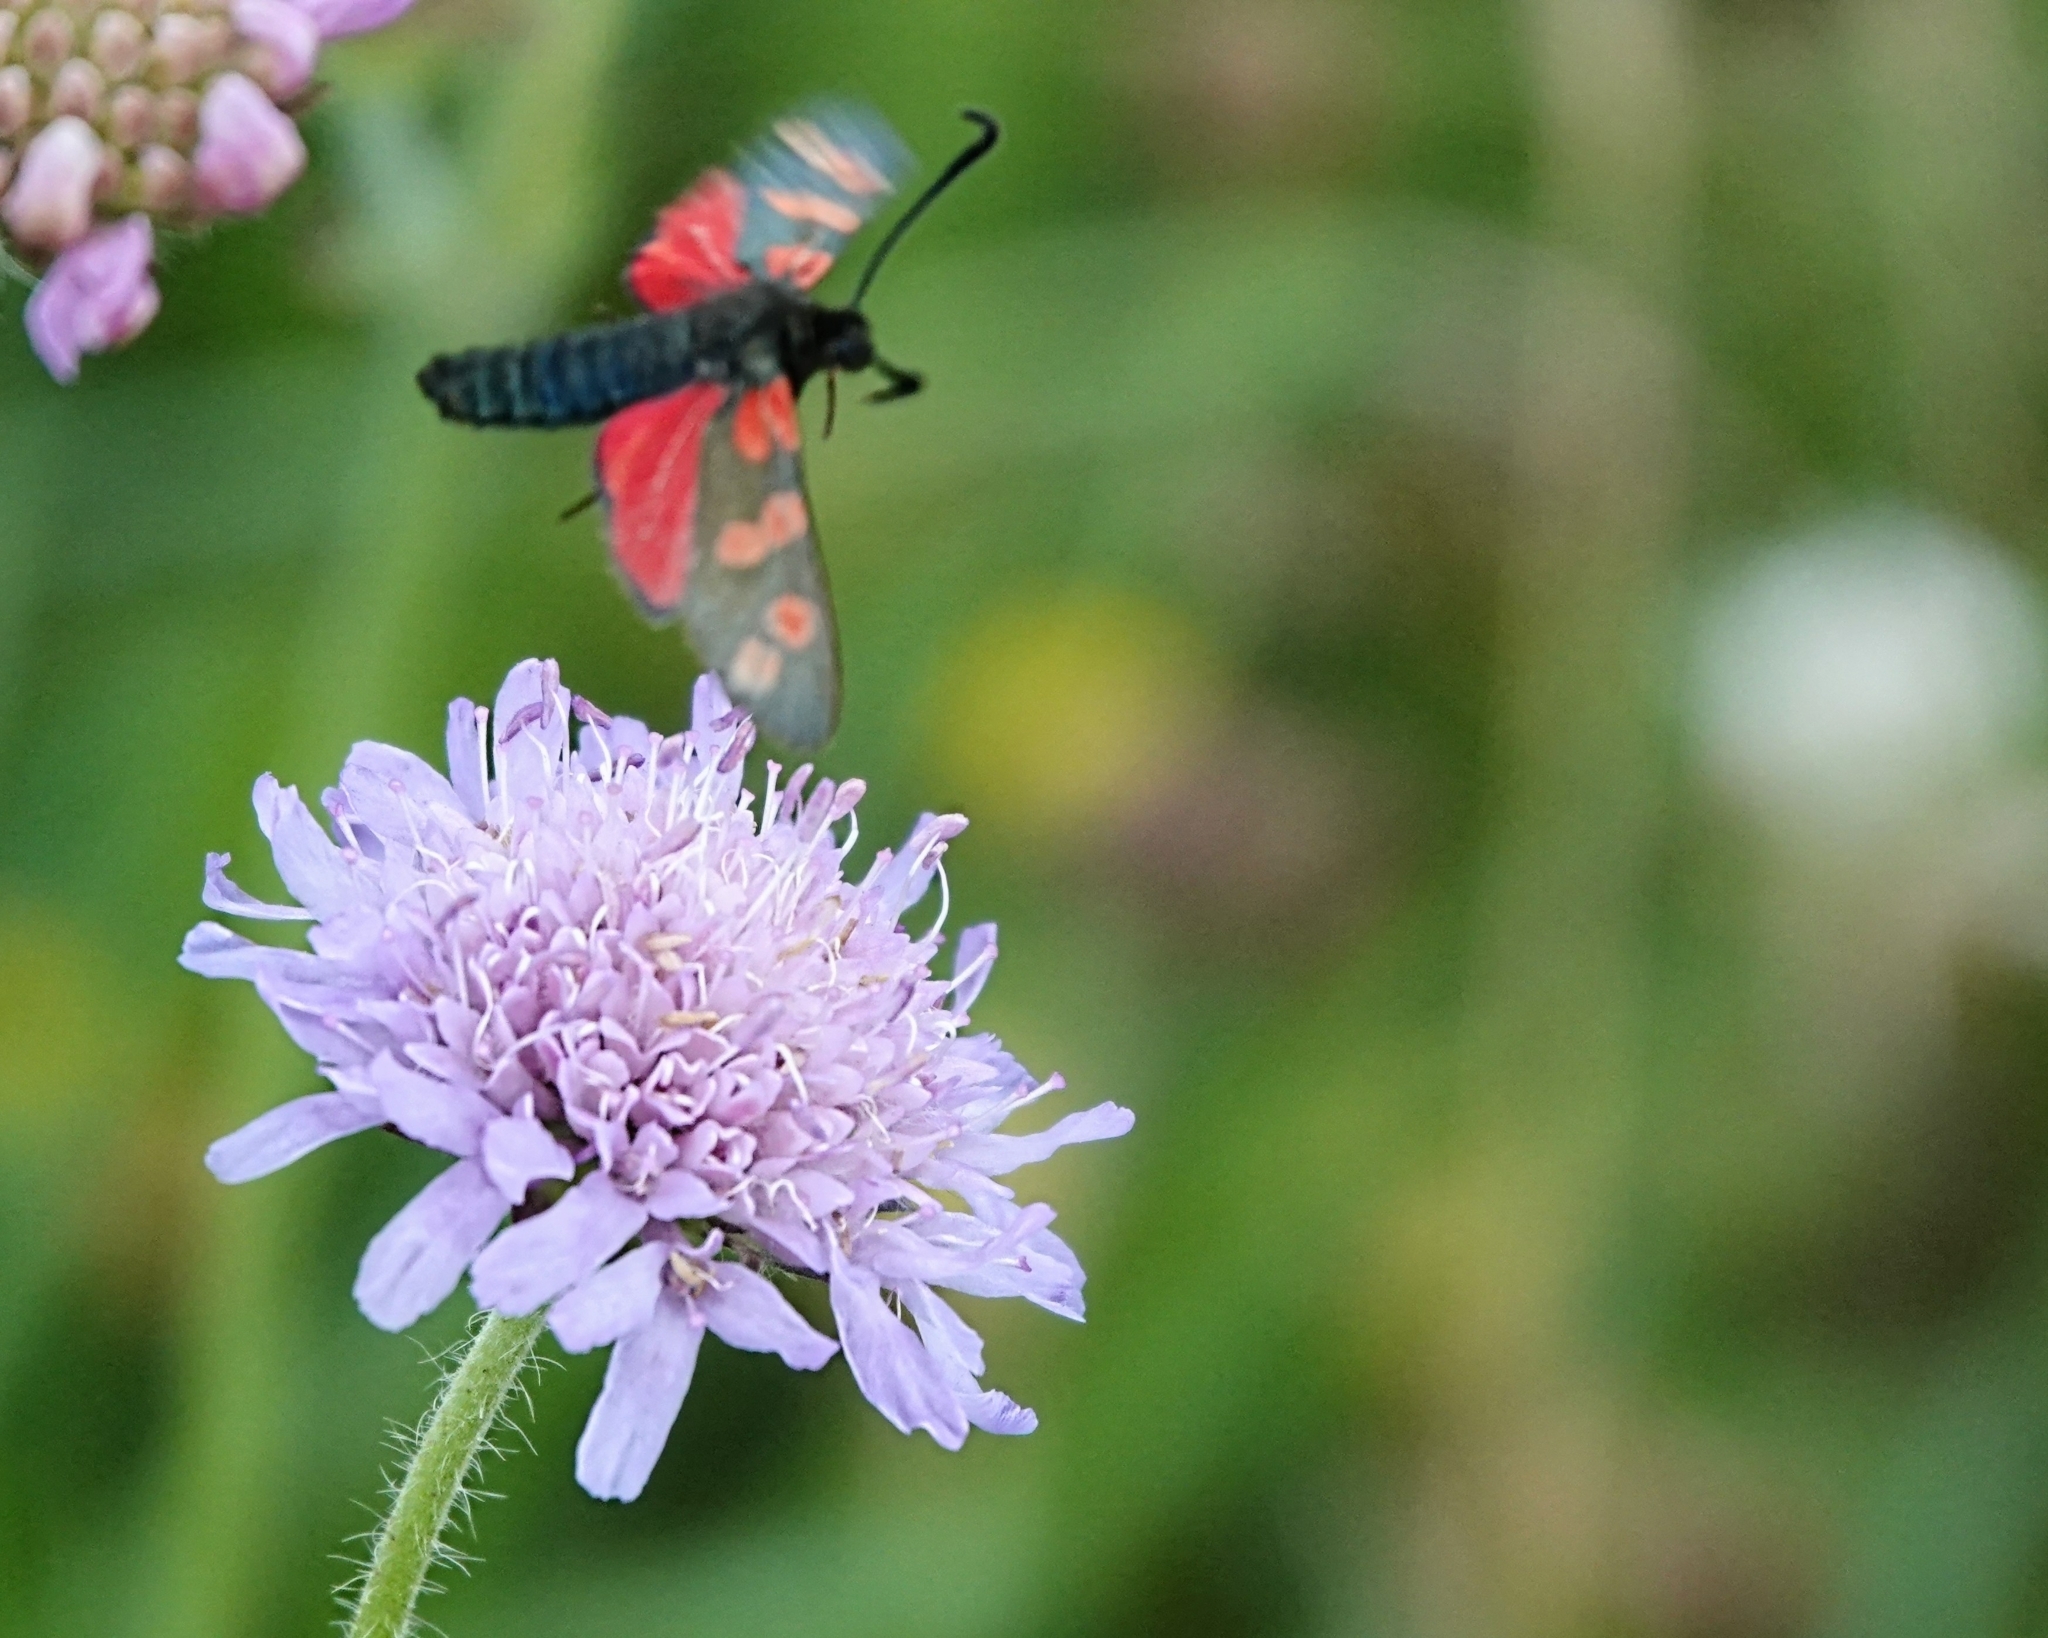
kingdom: Animalia
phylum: Arthropoda
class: Insecta
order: Lepidoptera
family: Zygaenidae
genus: Zygaena
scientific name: Zygaena filipendulae
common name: Six-spot burnet
